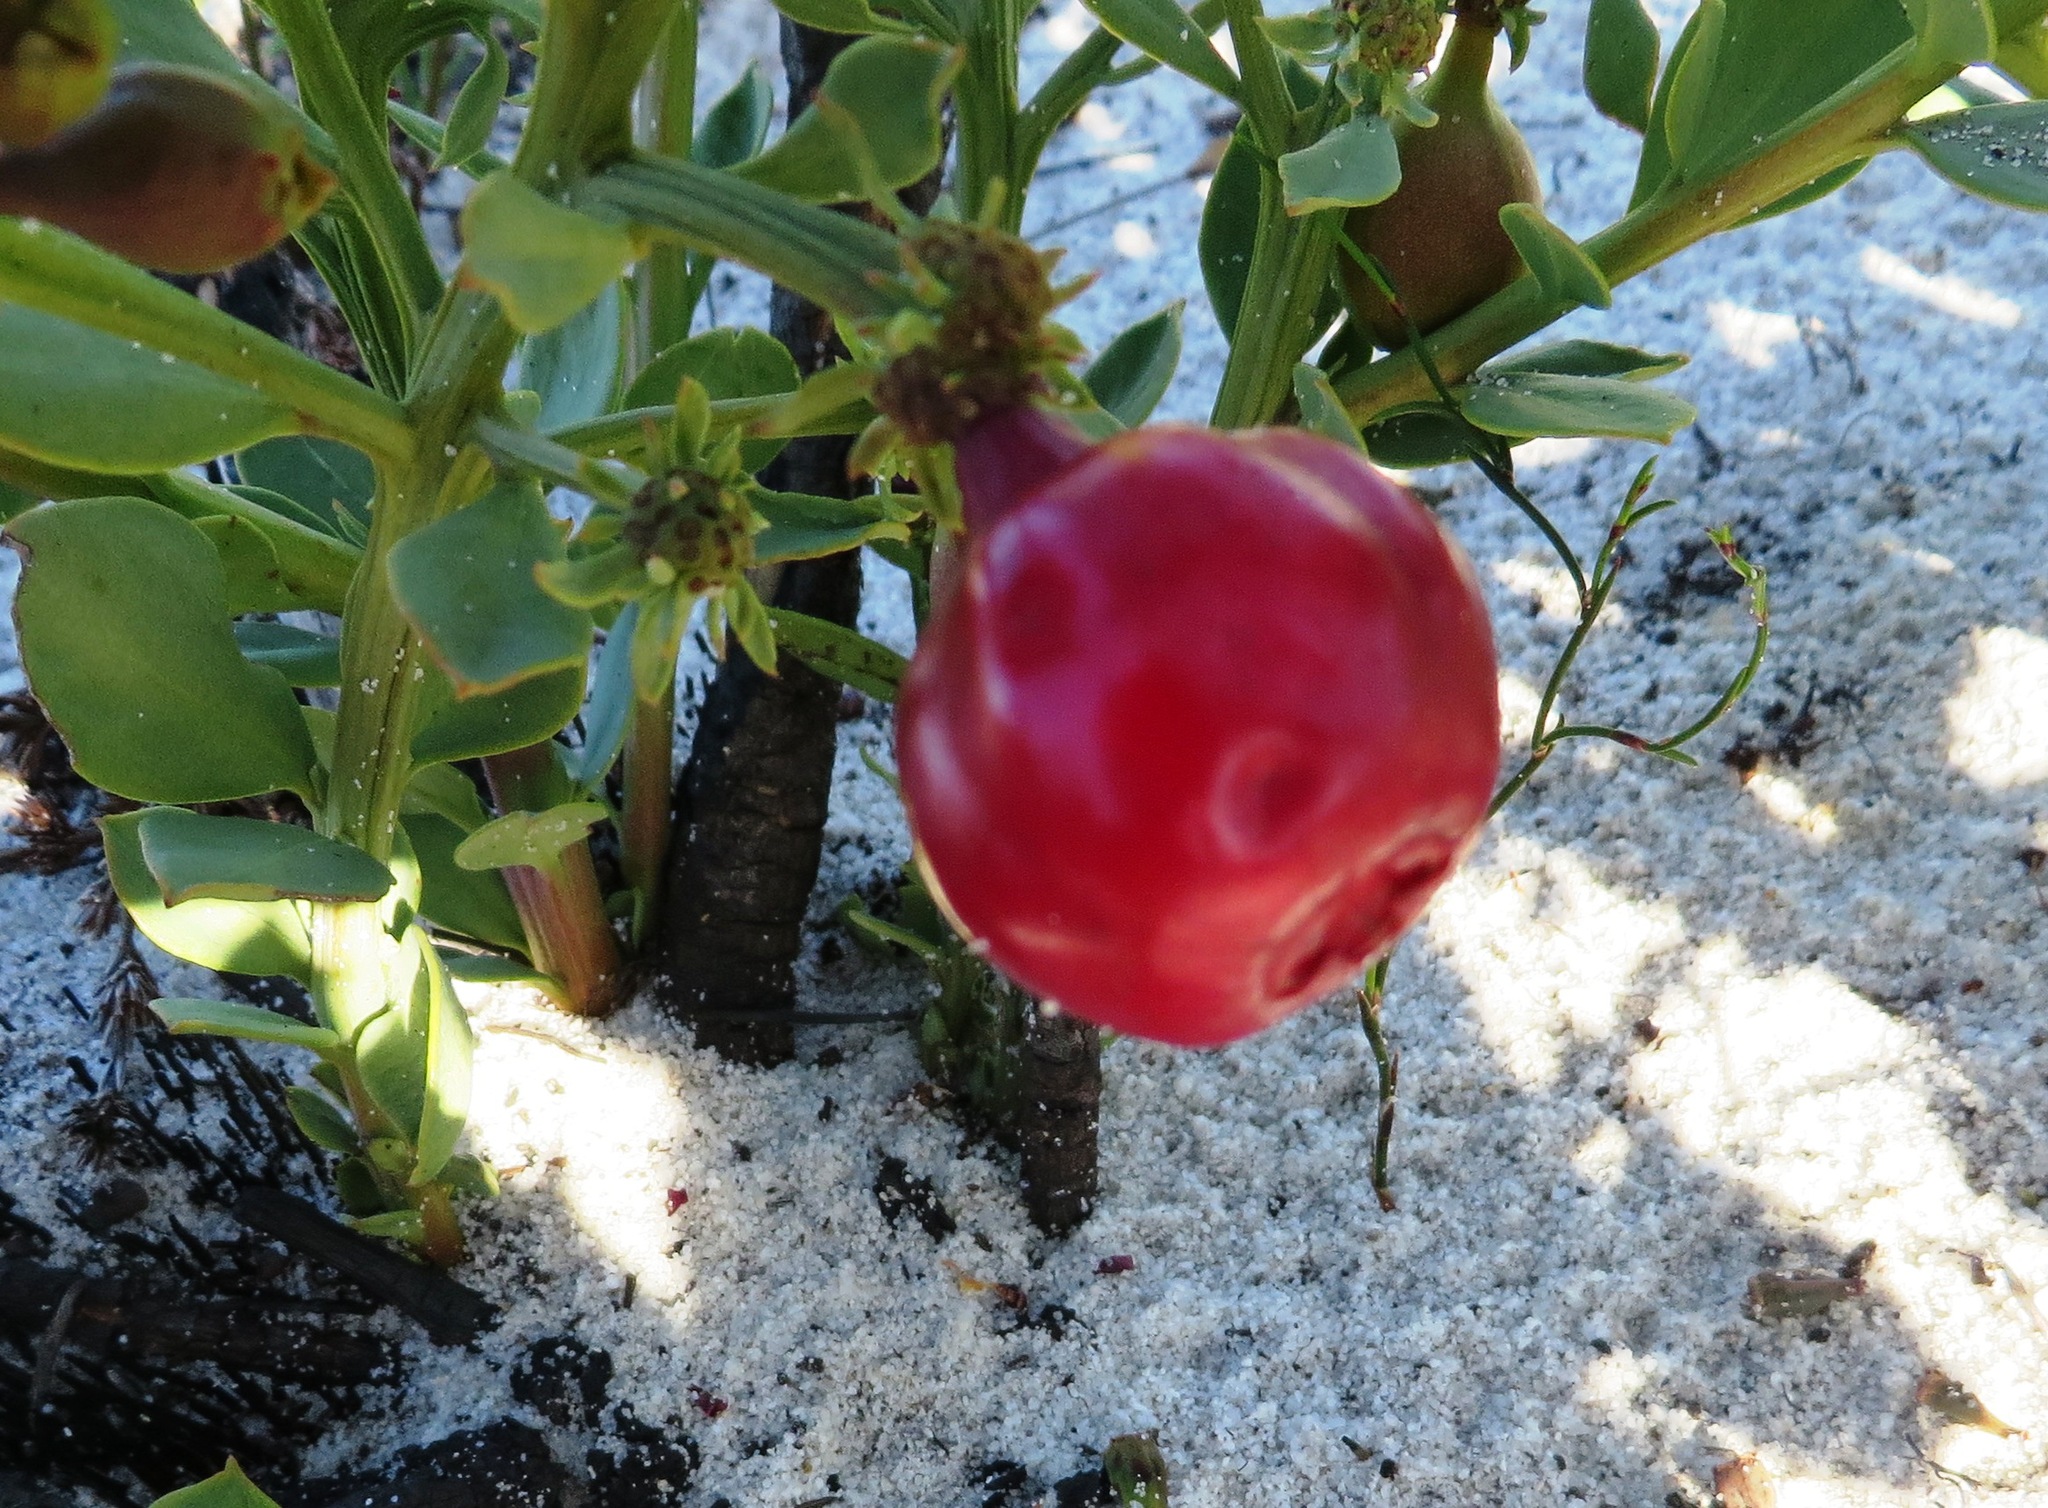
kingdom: Plantae
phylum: Tracheophyta
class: Magnoliopsida
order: Santalales
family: Santalaceae
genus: Osyris
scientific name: Osyris speciosa
